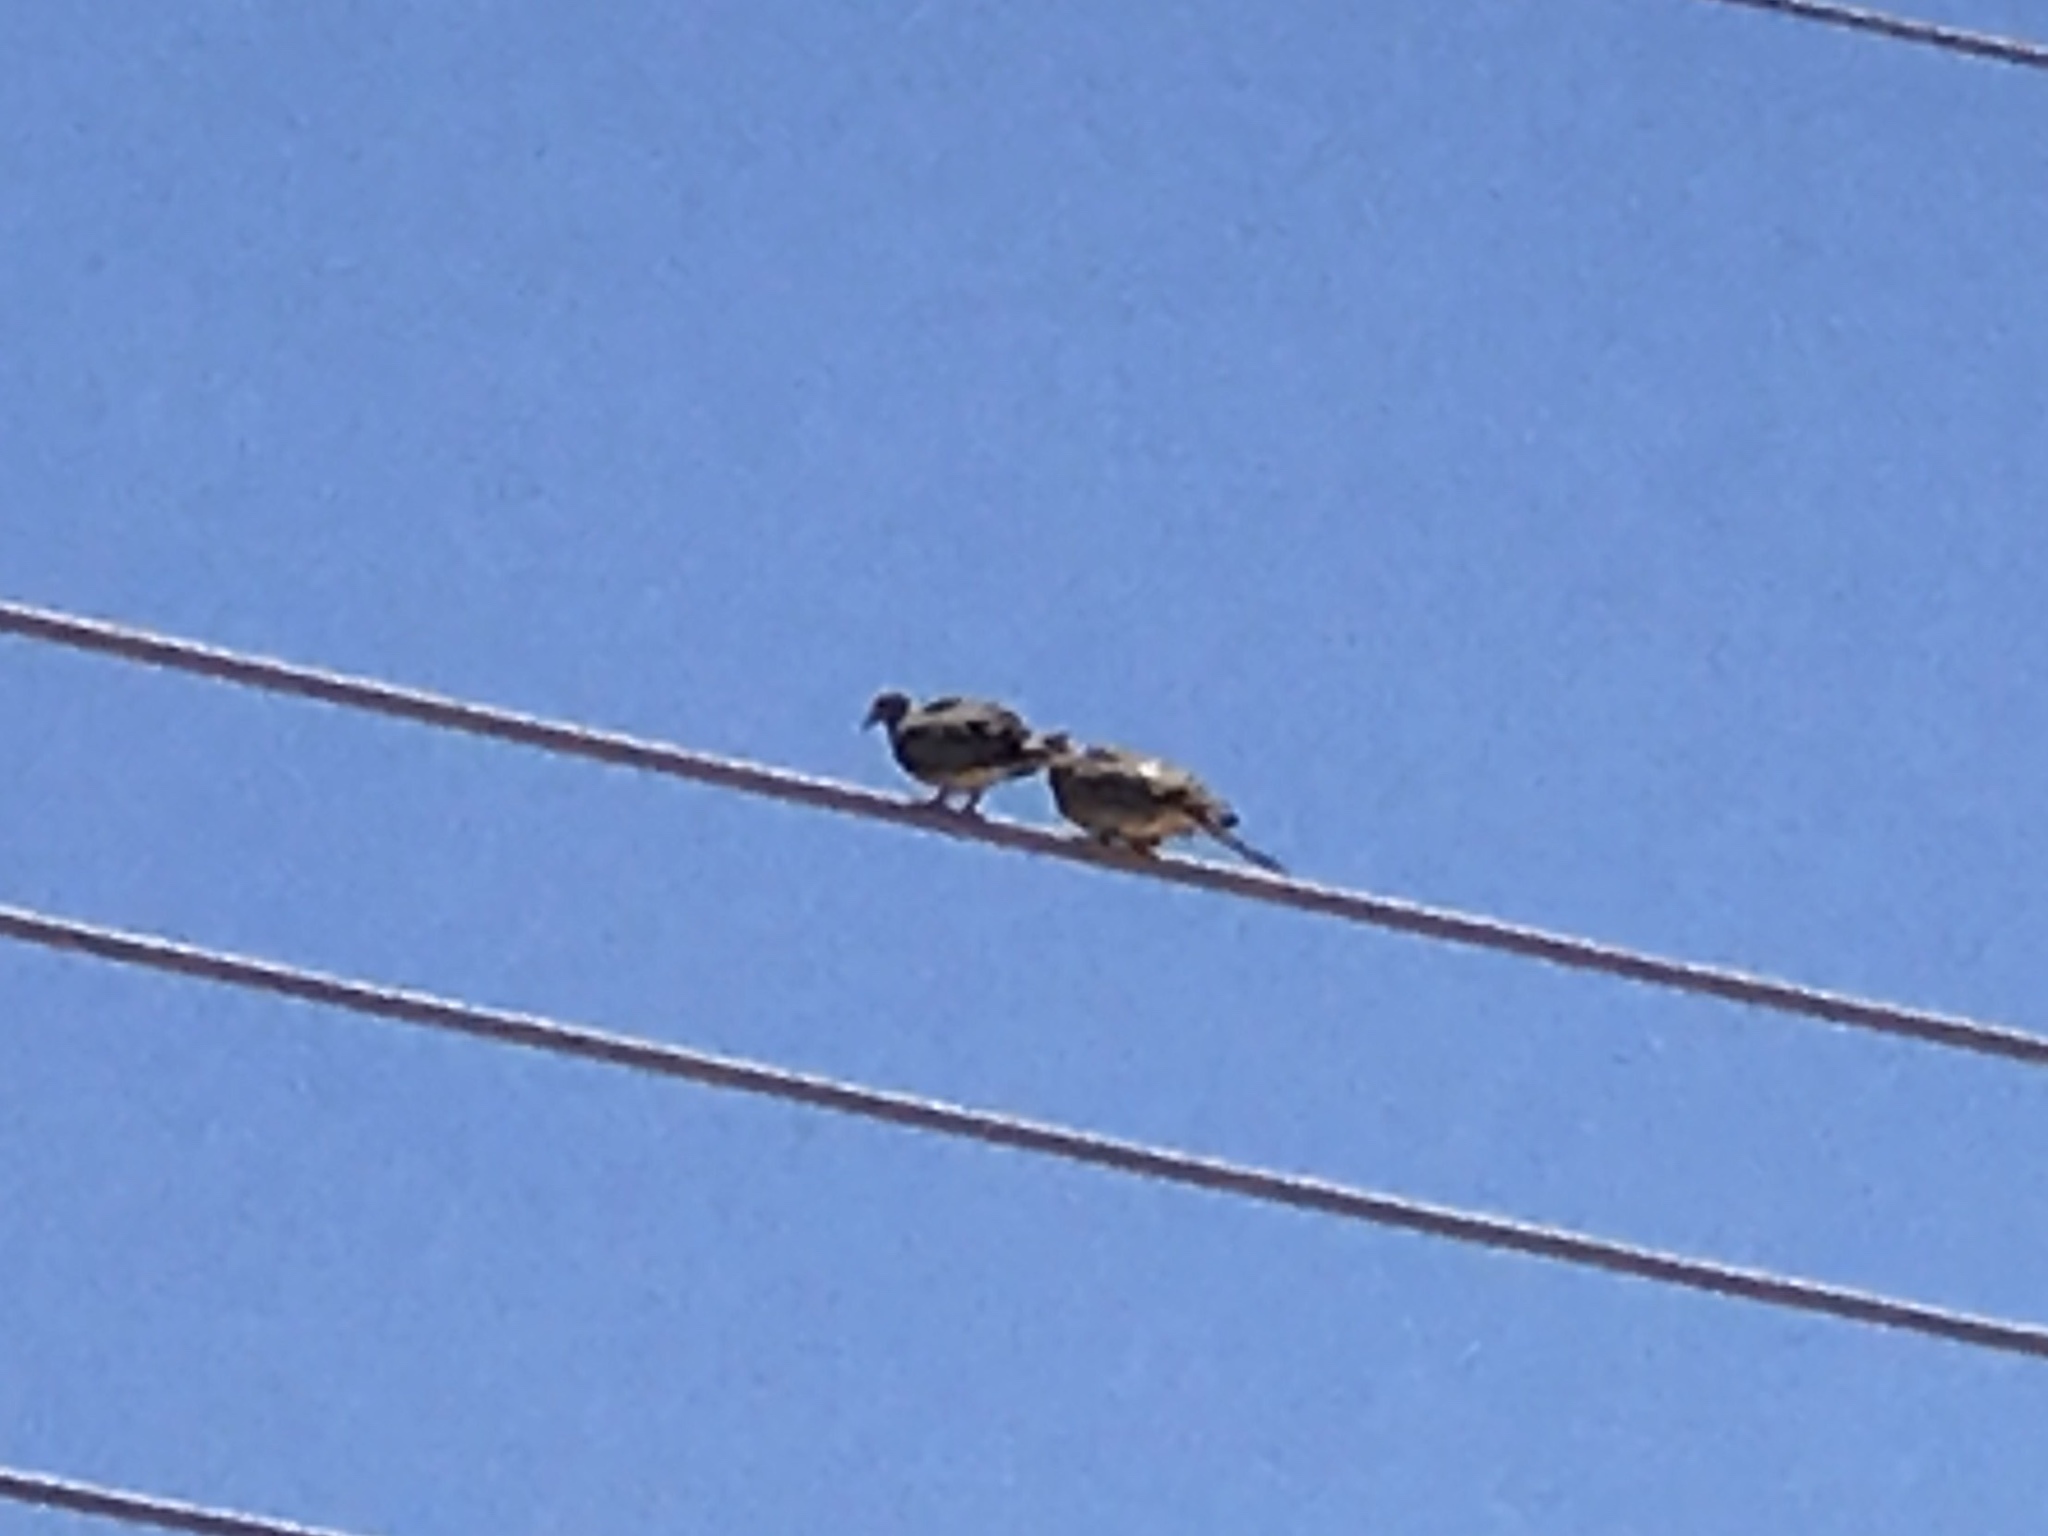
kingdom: Animalia
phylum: Chordata
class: Aves
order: Columbiformes
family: Columbidae
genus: Zenaida
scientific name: Zenaida macroura
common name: Mourning dove
